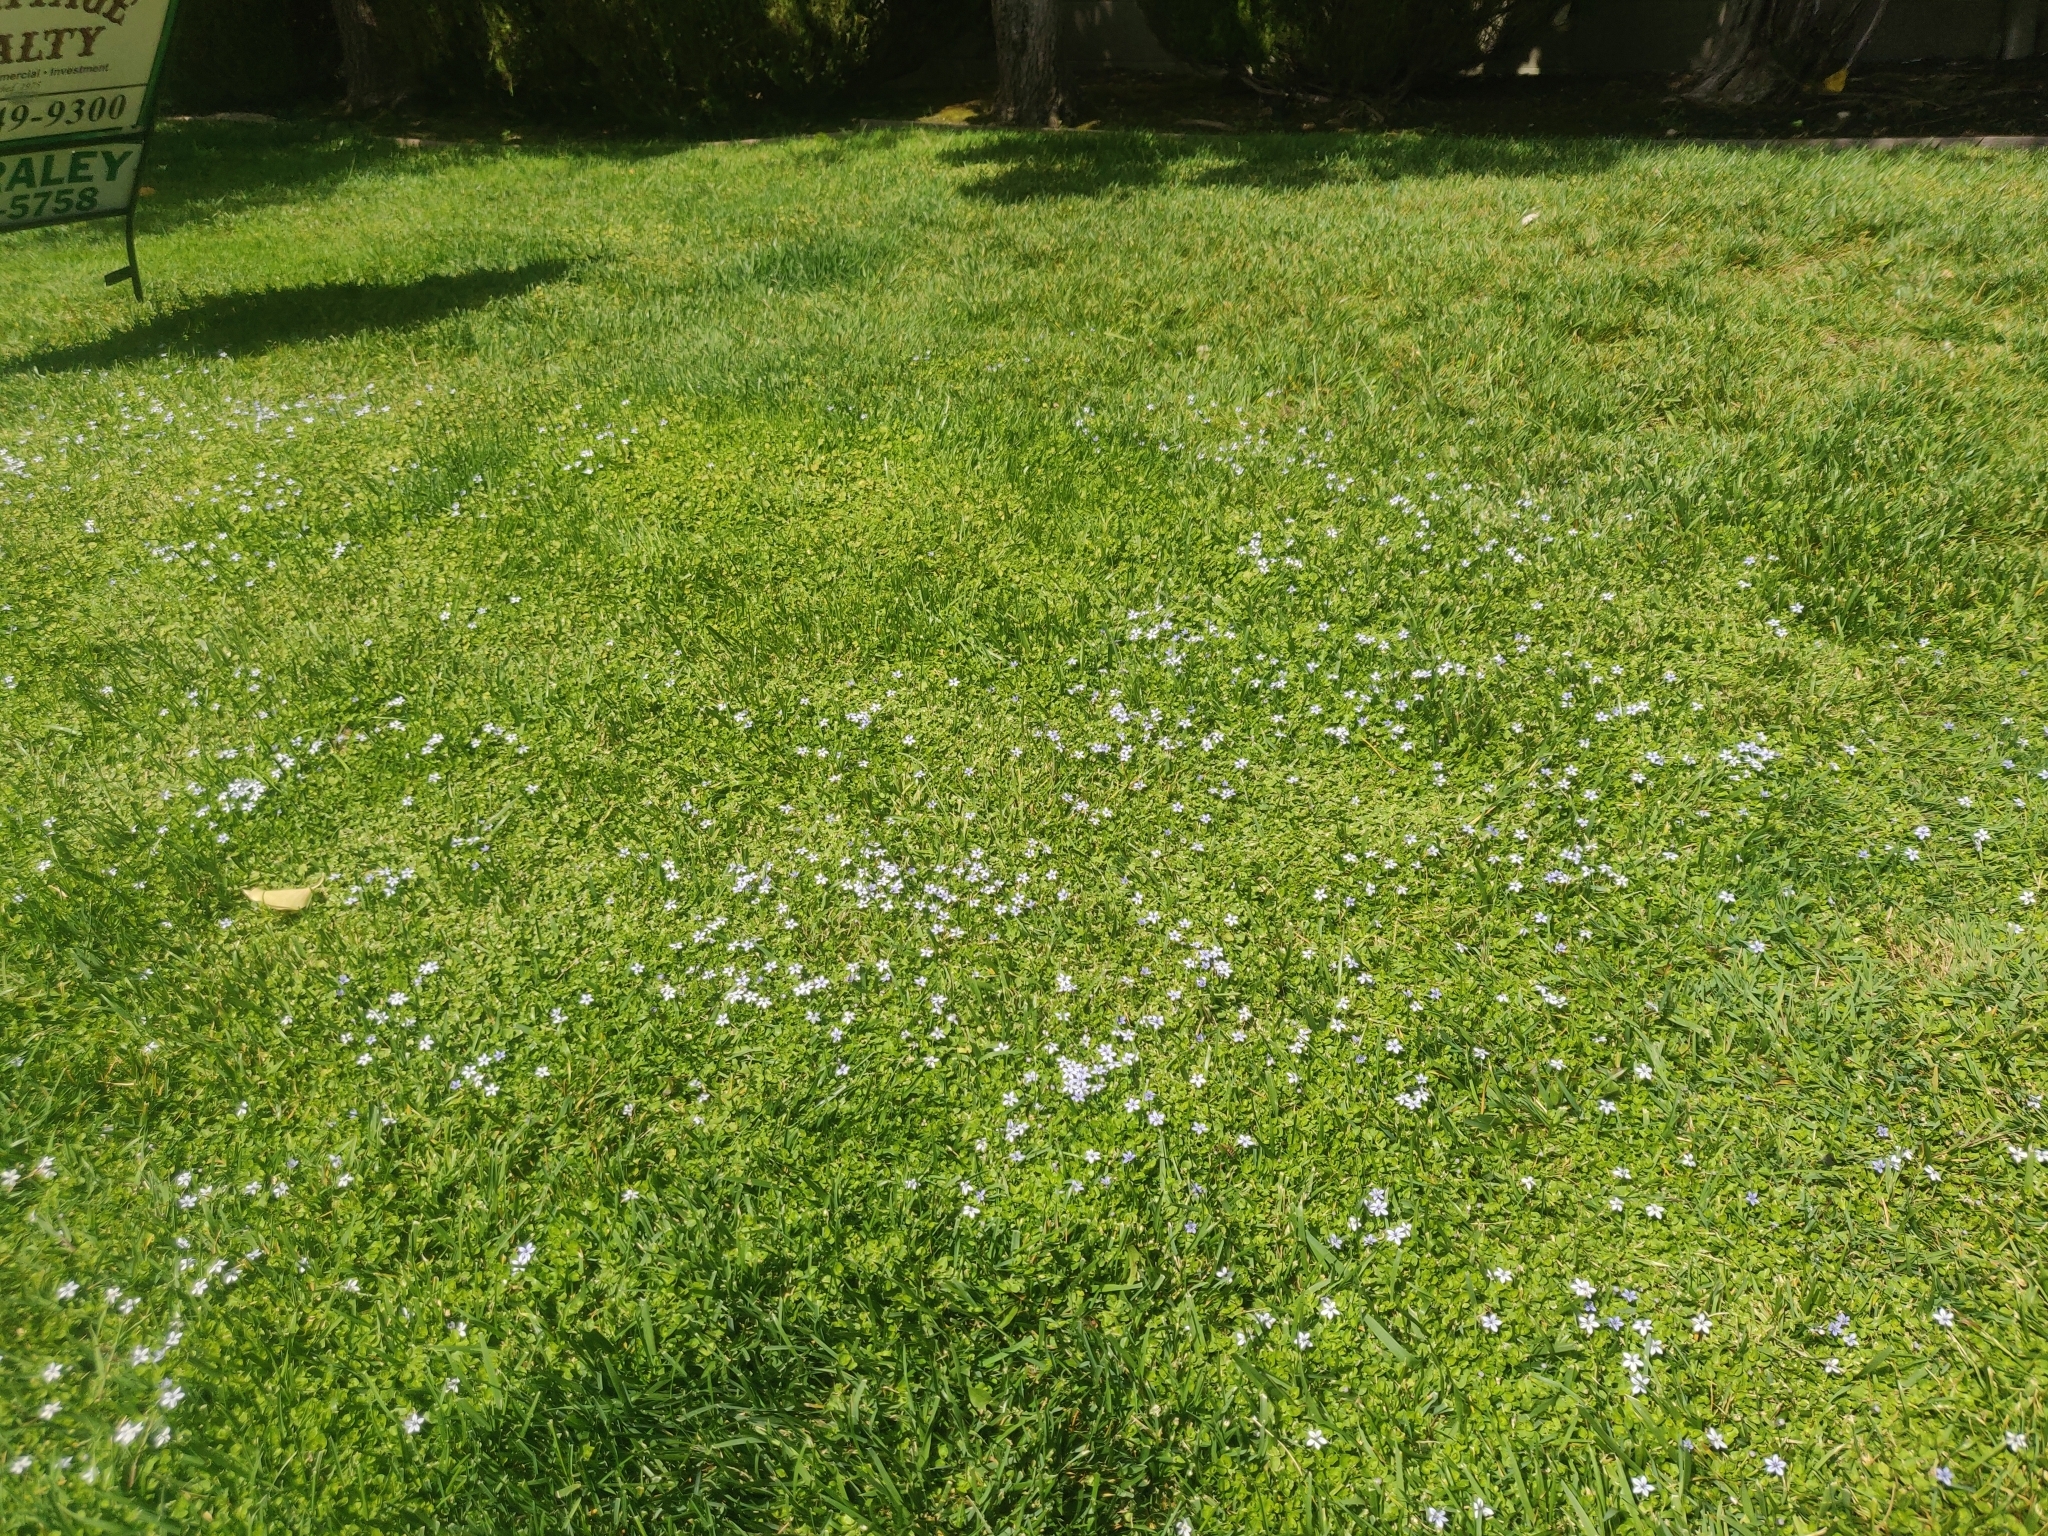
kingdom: Plantae
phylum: Tracheophyta
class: Magnoliopsida
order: Asterales
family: Campanulaceae
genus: Lobelia
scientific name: Lobelia pedunculata
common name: Matted pratia
